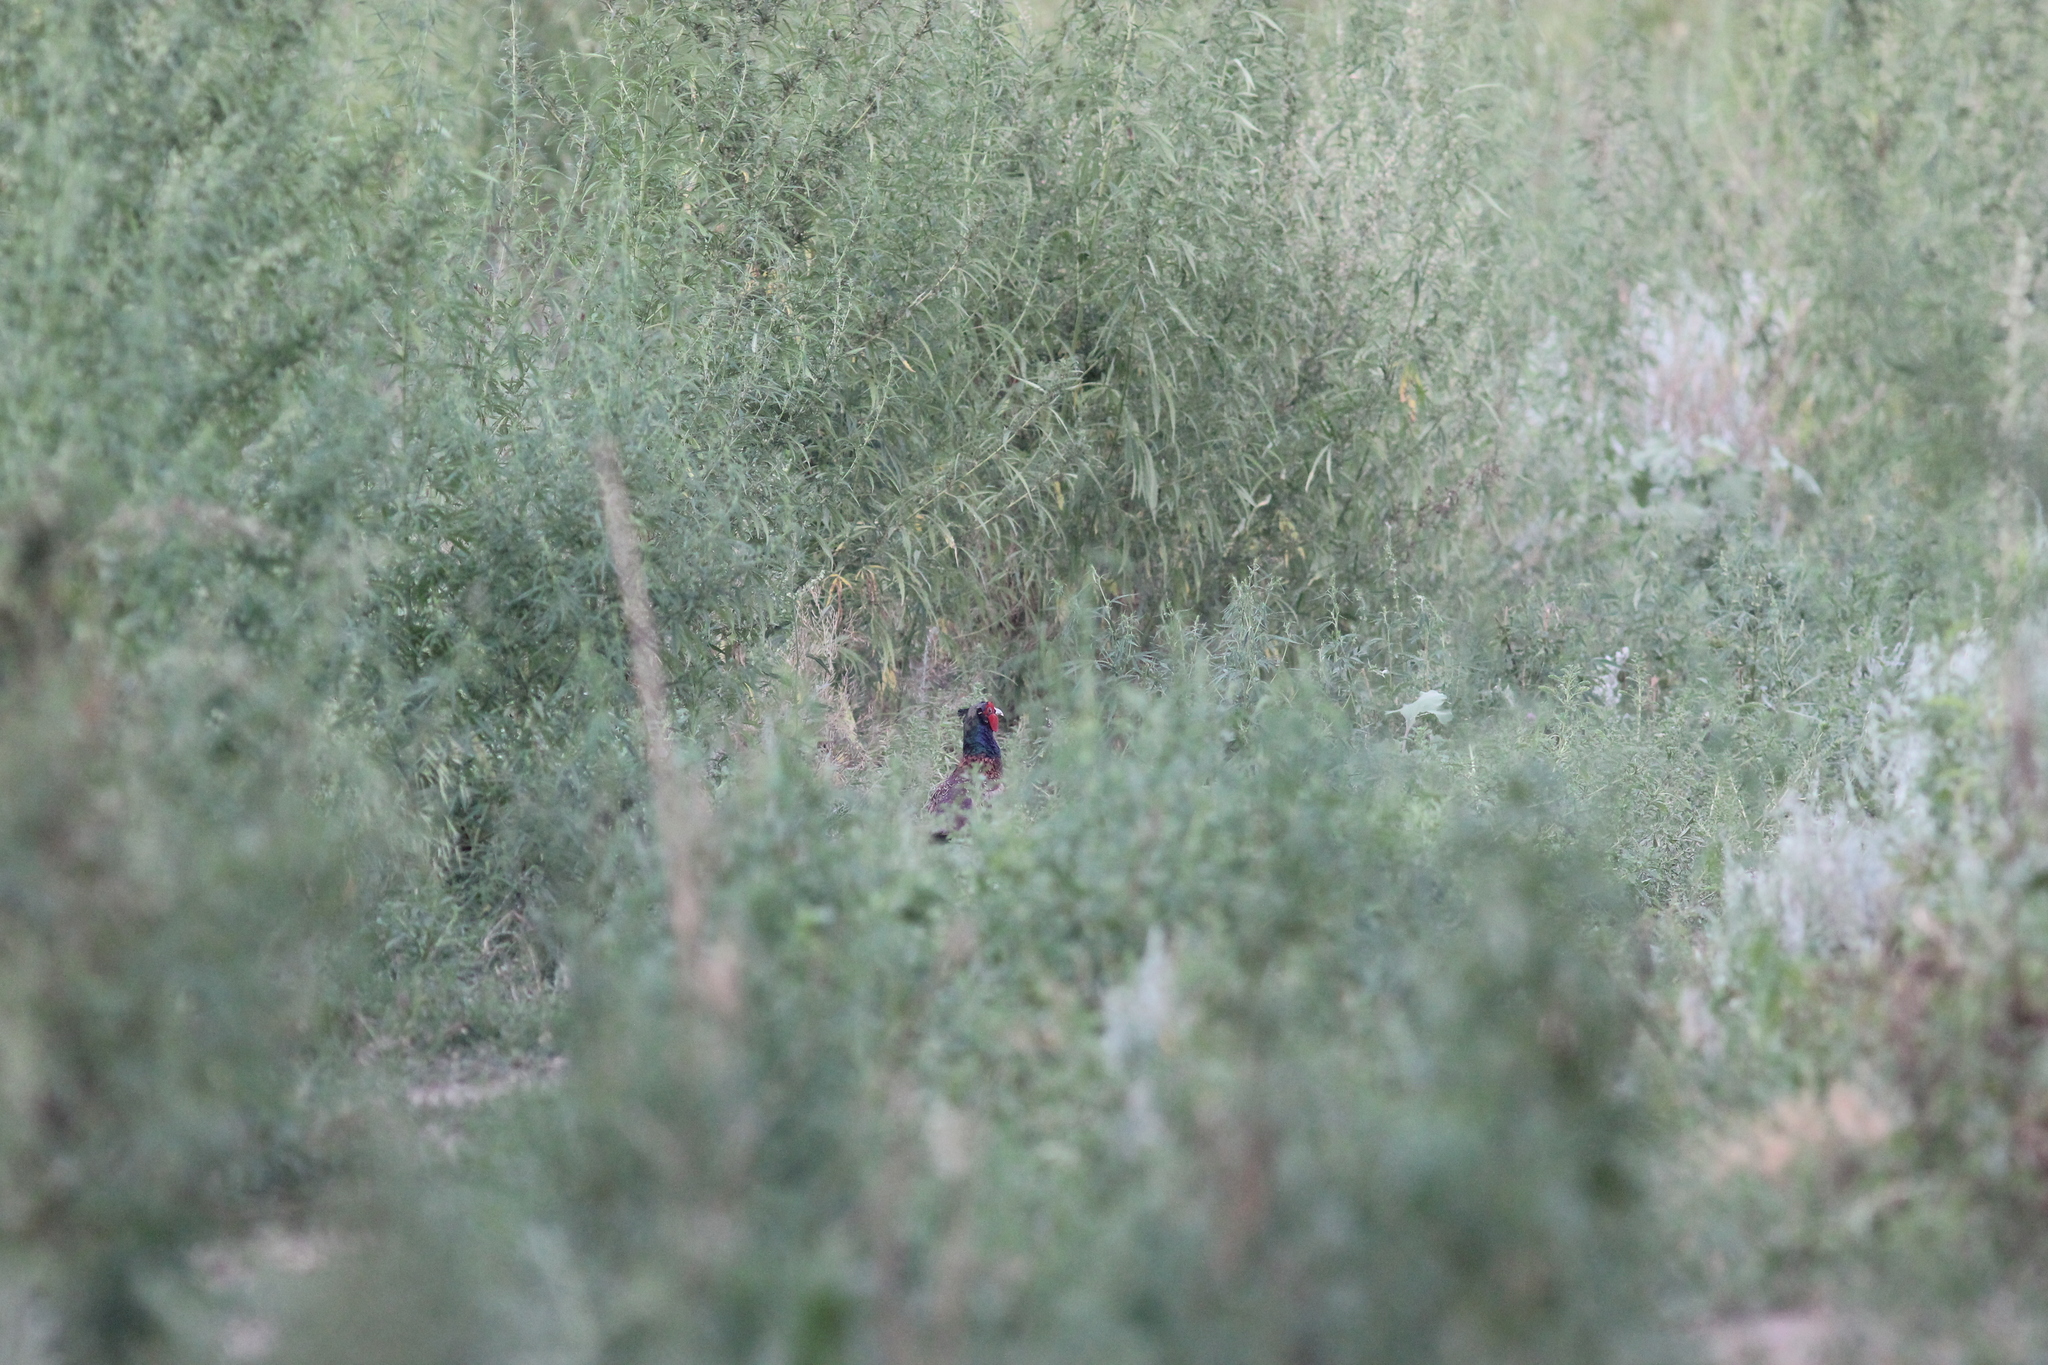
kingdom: Animalia
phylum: Chordata
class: Aves
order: Galliformes
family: Phasianidae
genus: Phasianus
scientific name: Phasianus colchicus
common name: Common pheasant
